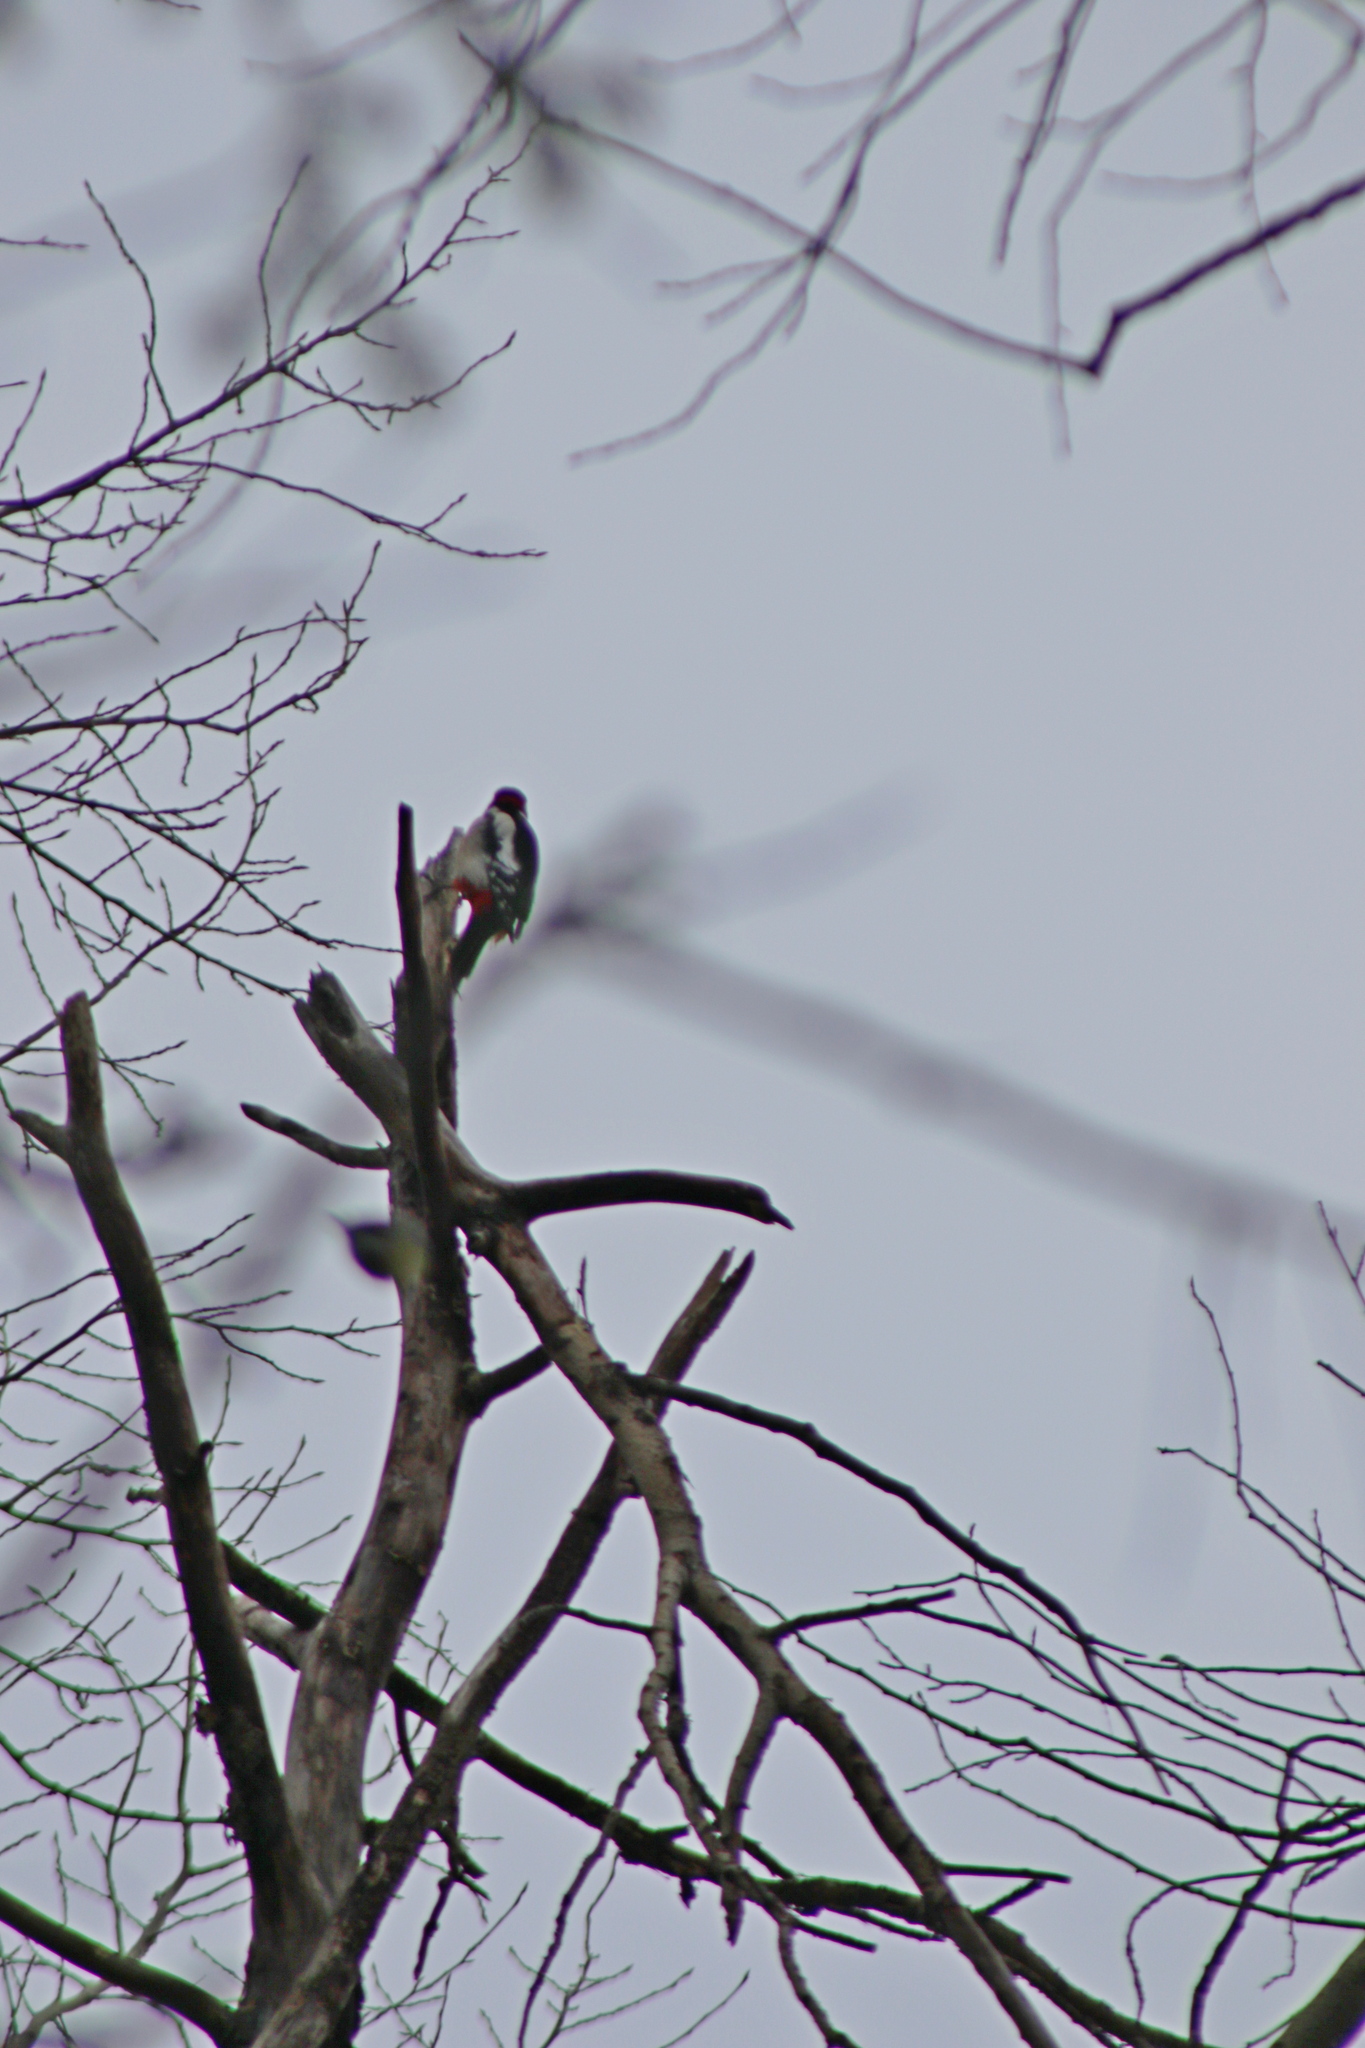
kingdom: Animalia
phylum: Chordata
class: Aves
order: Piciformes
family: Picidae
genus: Dendrocopos
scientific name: Dendrocopos major
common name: Great spotted woodpecker
